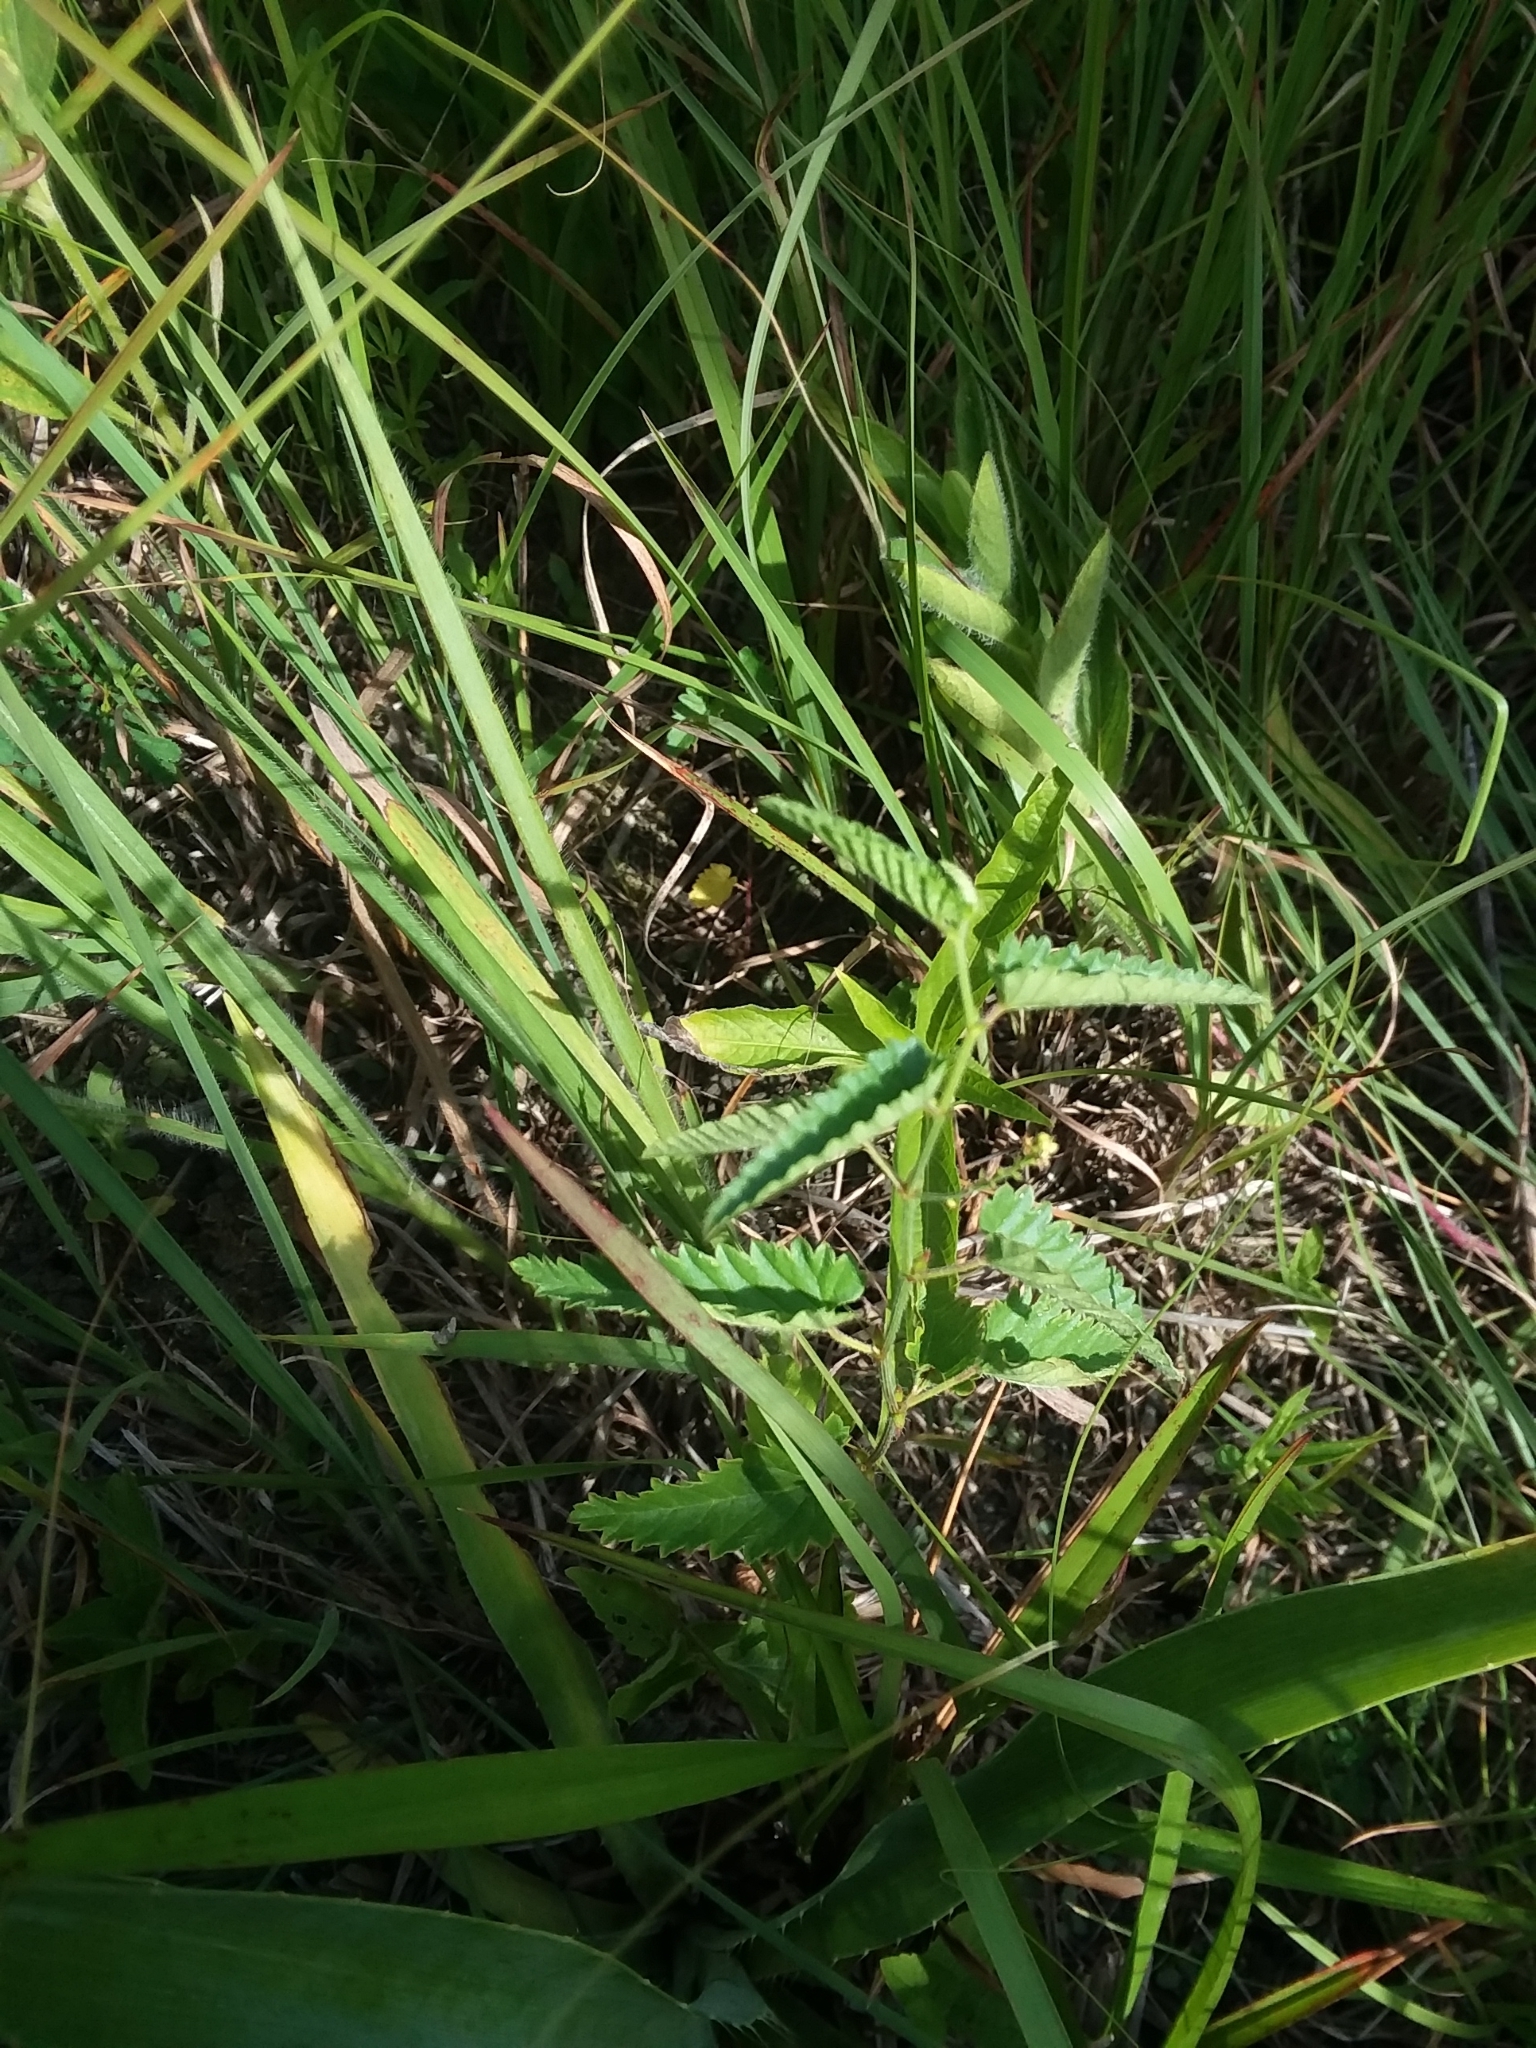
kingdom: Plantae
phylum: Tracheophyta
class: Magnoliopsida
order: Malpighiales
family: Euphorbiaceae
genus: Tragia
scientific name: Tragia urticifolia
